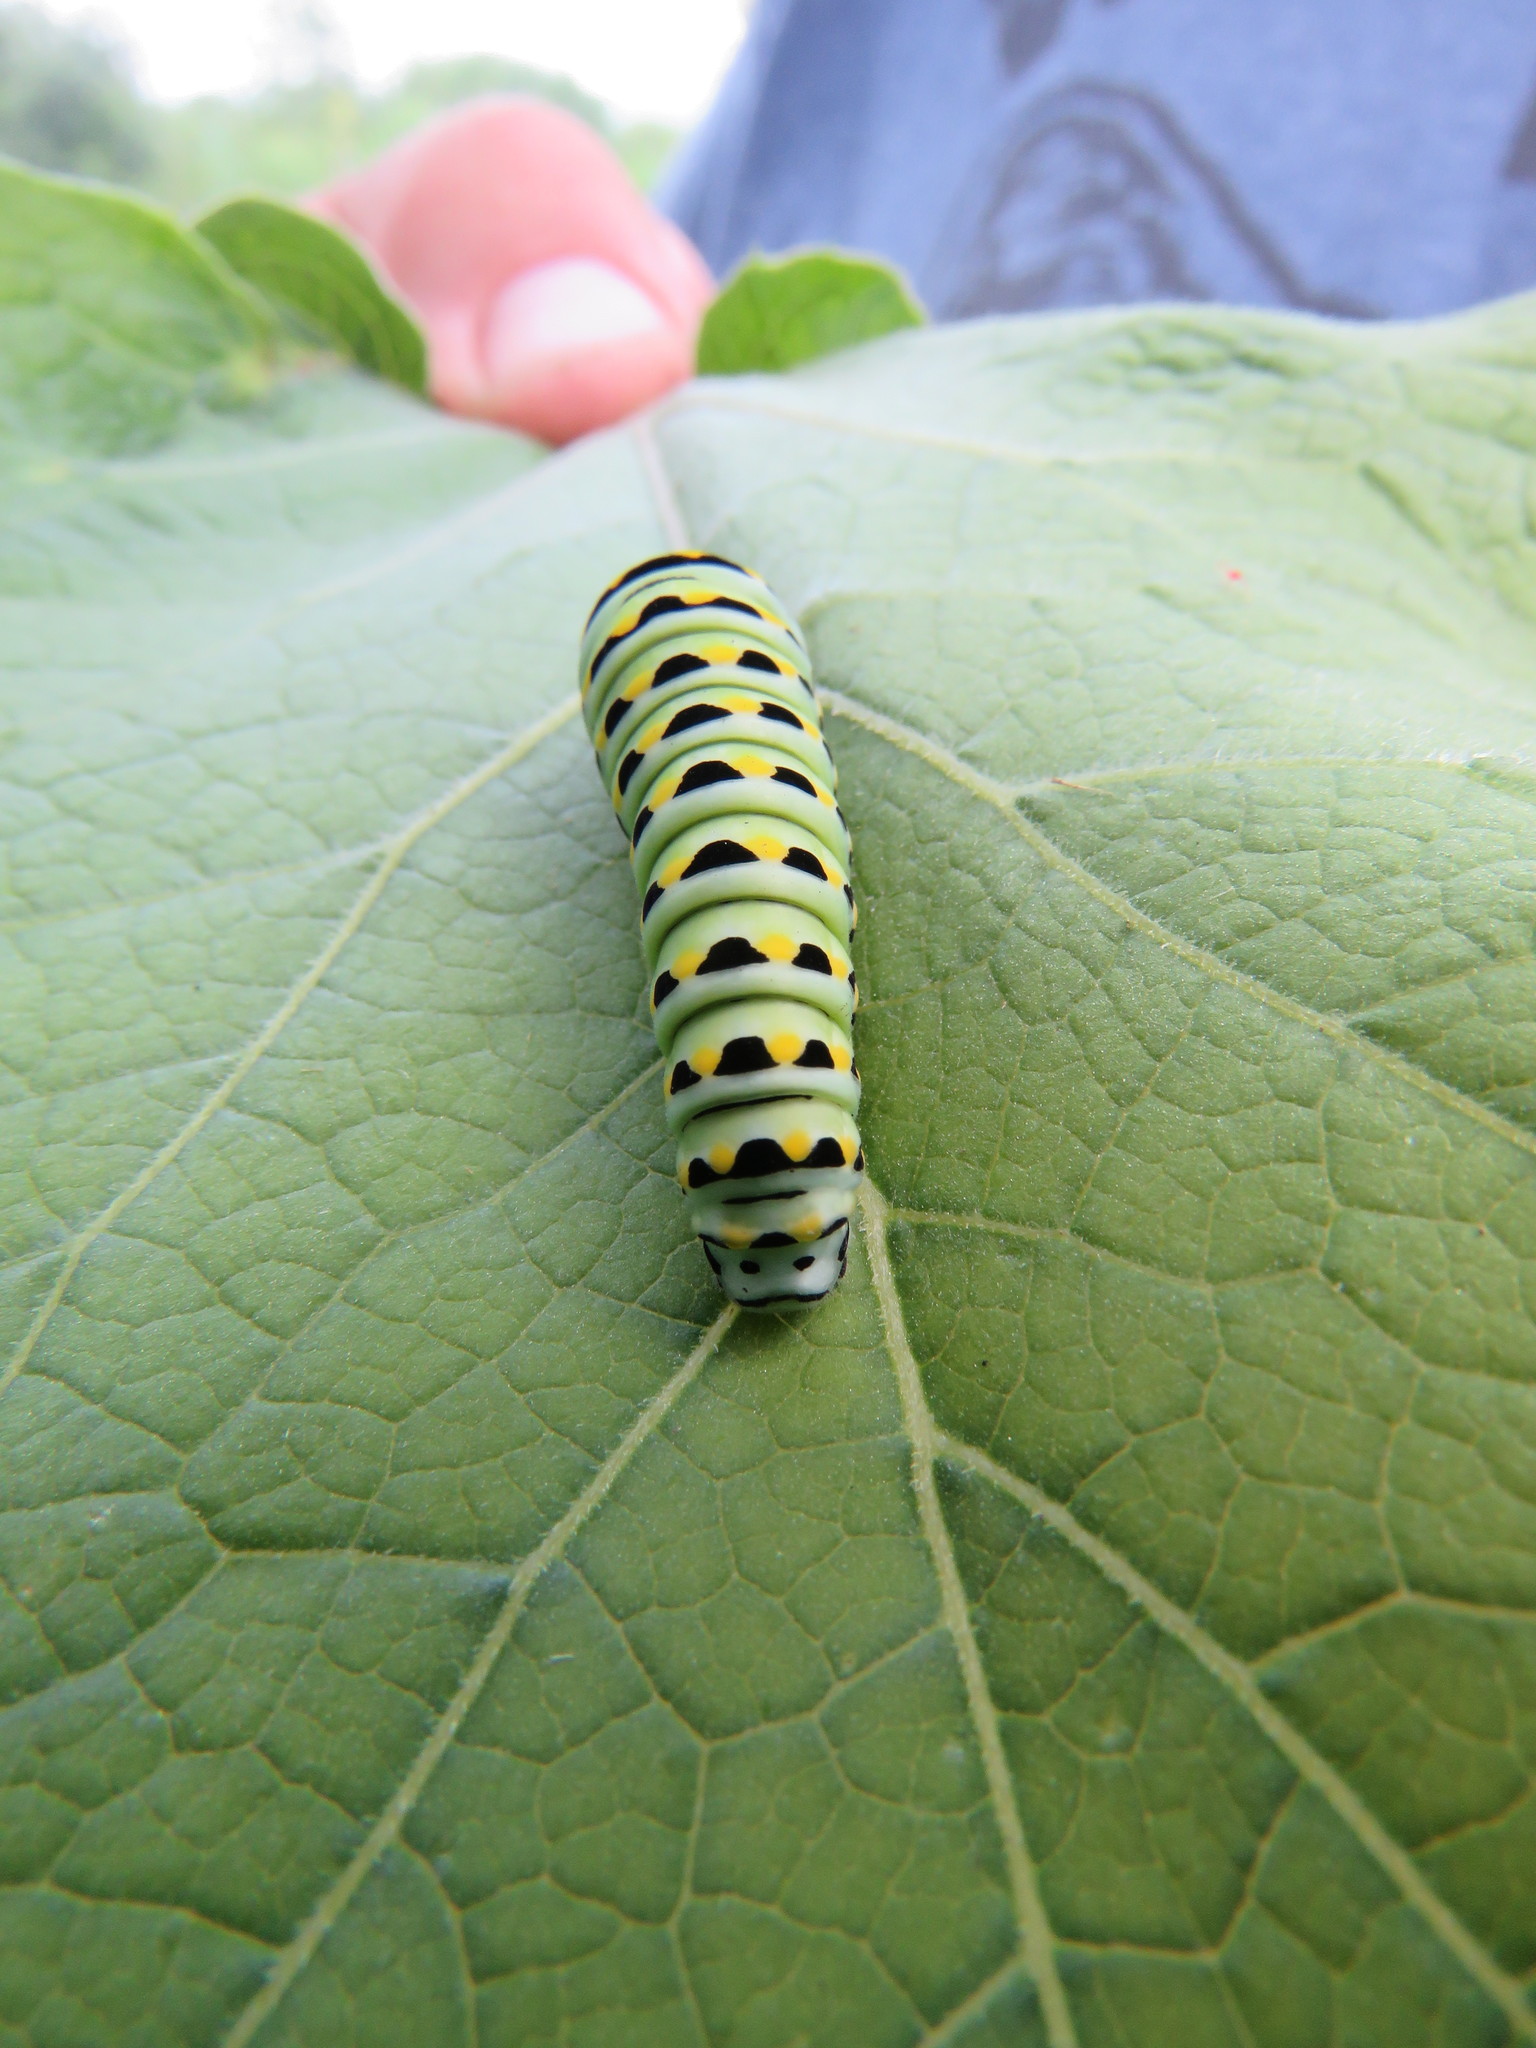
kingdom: Animalia
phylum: Arthropoda
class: Insecta
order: Lepidoptera
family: Papilionidae
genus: Papilio
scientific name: Papilio polyxenes
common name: Black swallowtail
